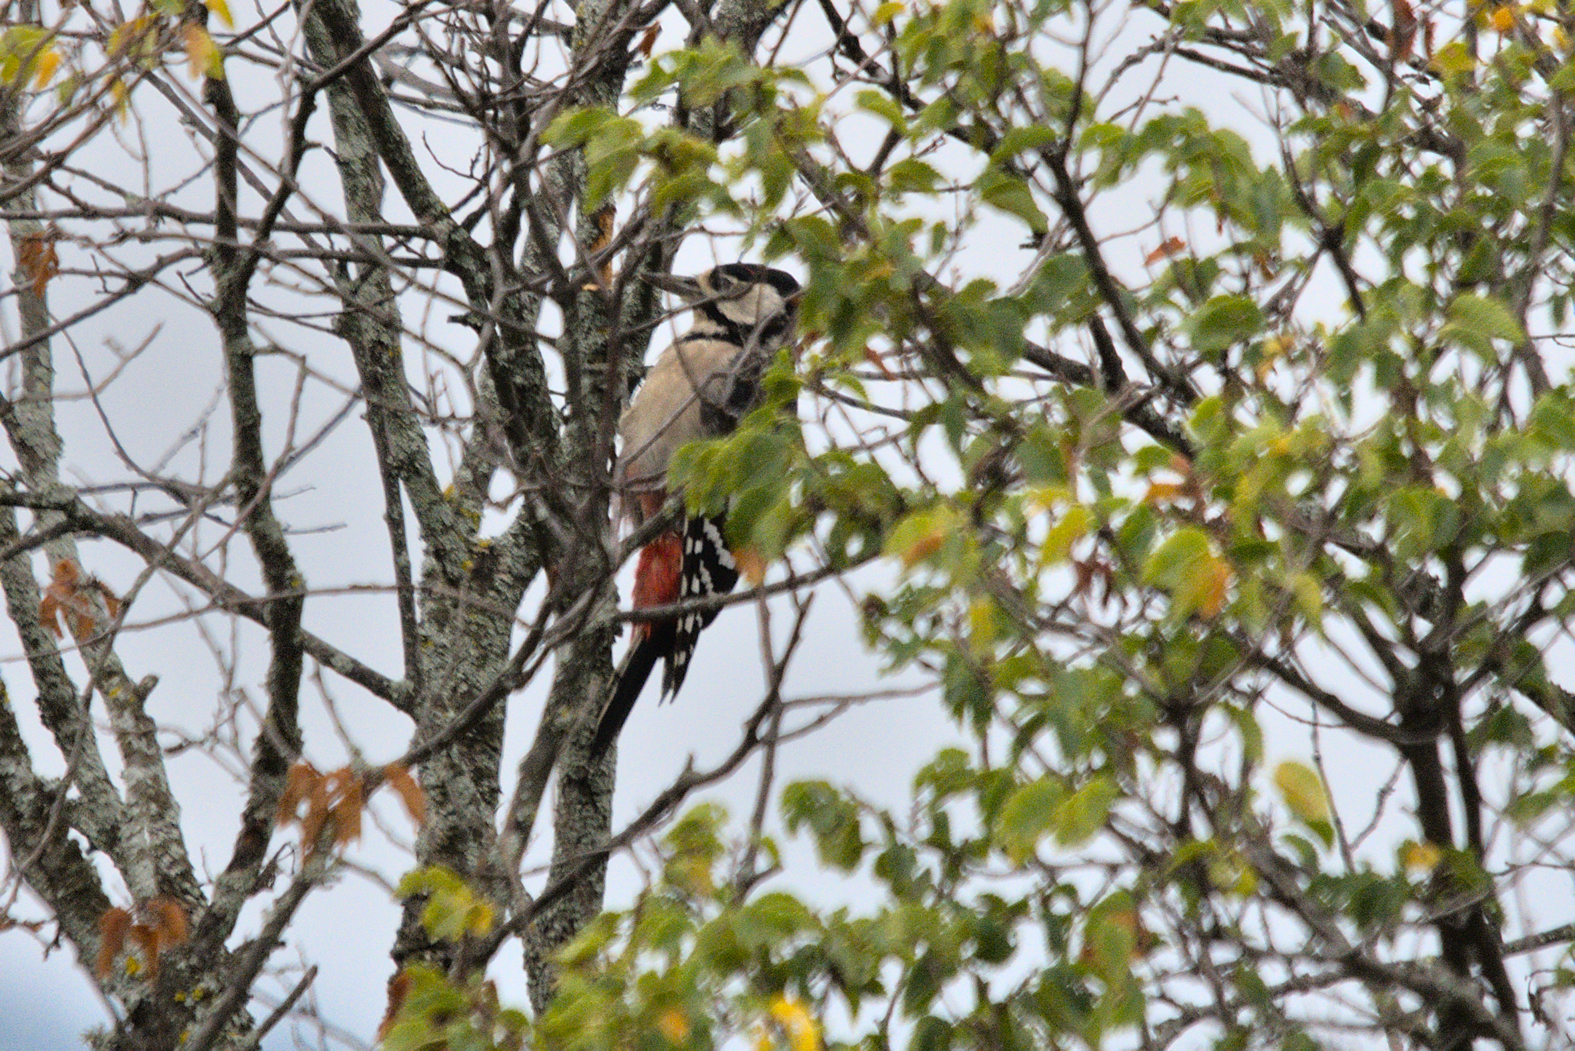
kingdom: Animalia
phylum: Chordata
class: Aves
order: Piciformes
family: Picidae
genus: Dendrocopos
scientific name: Dendrocopos major
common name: Great spotted woodpecker
